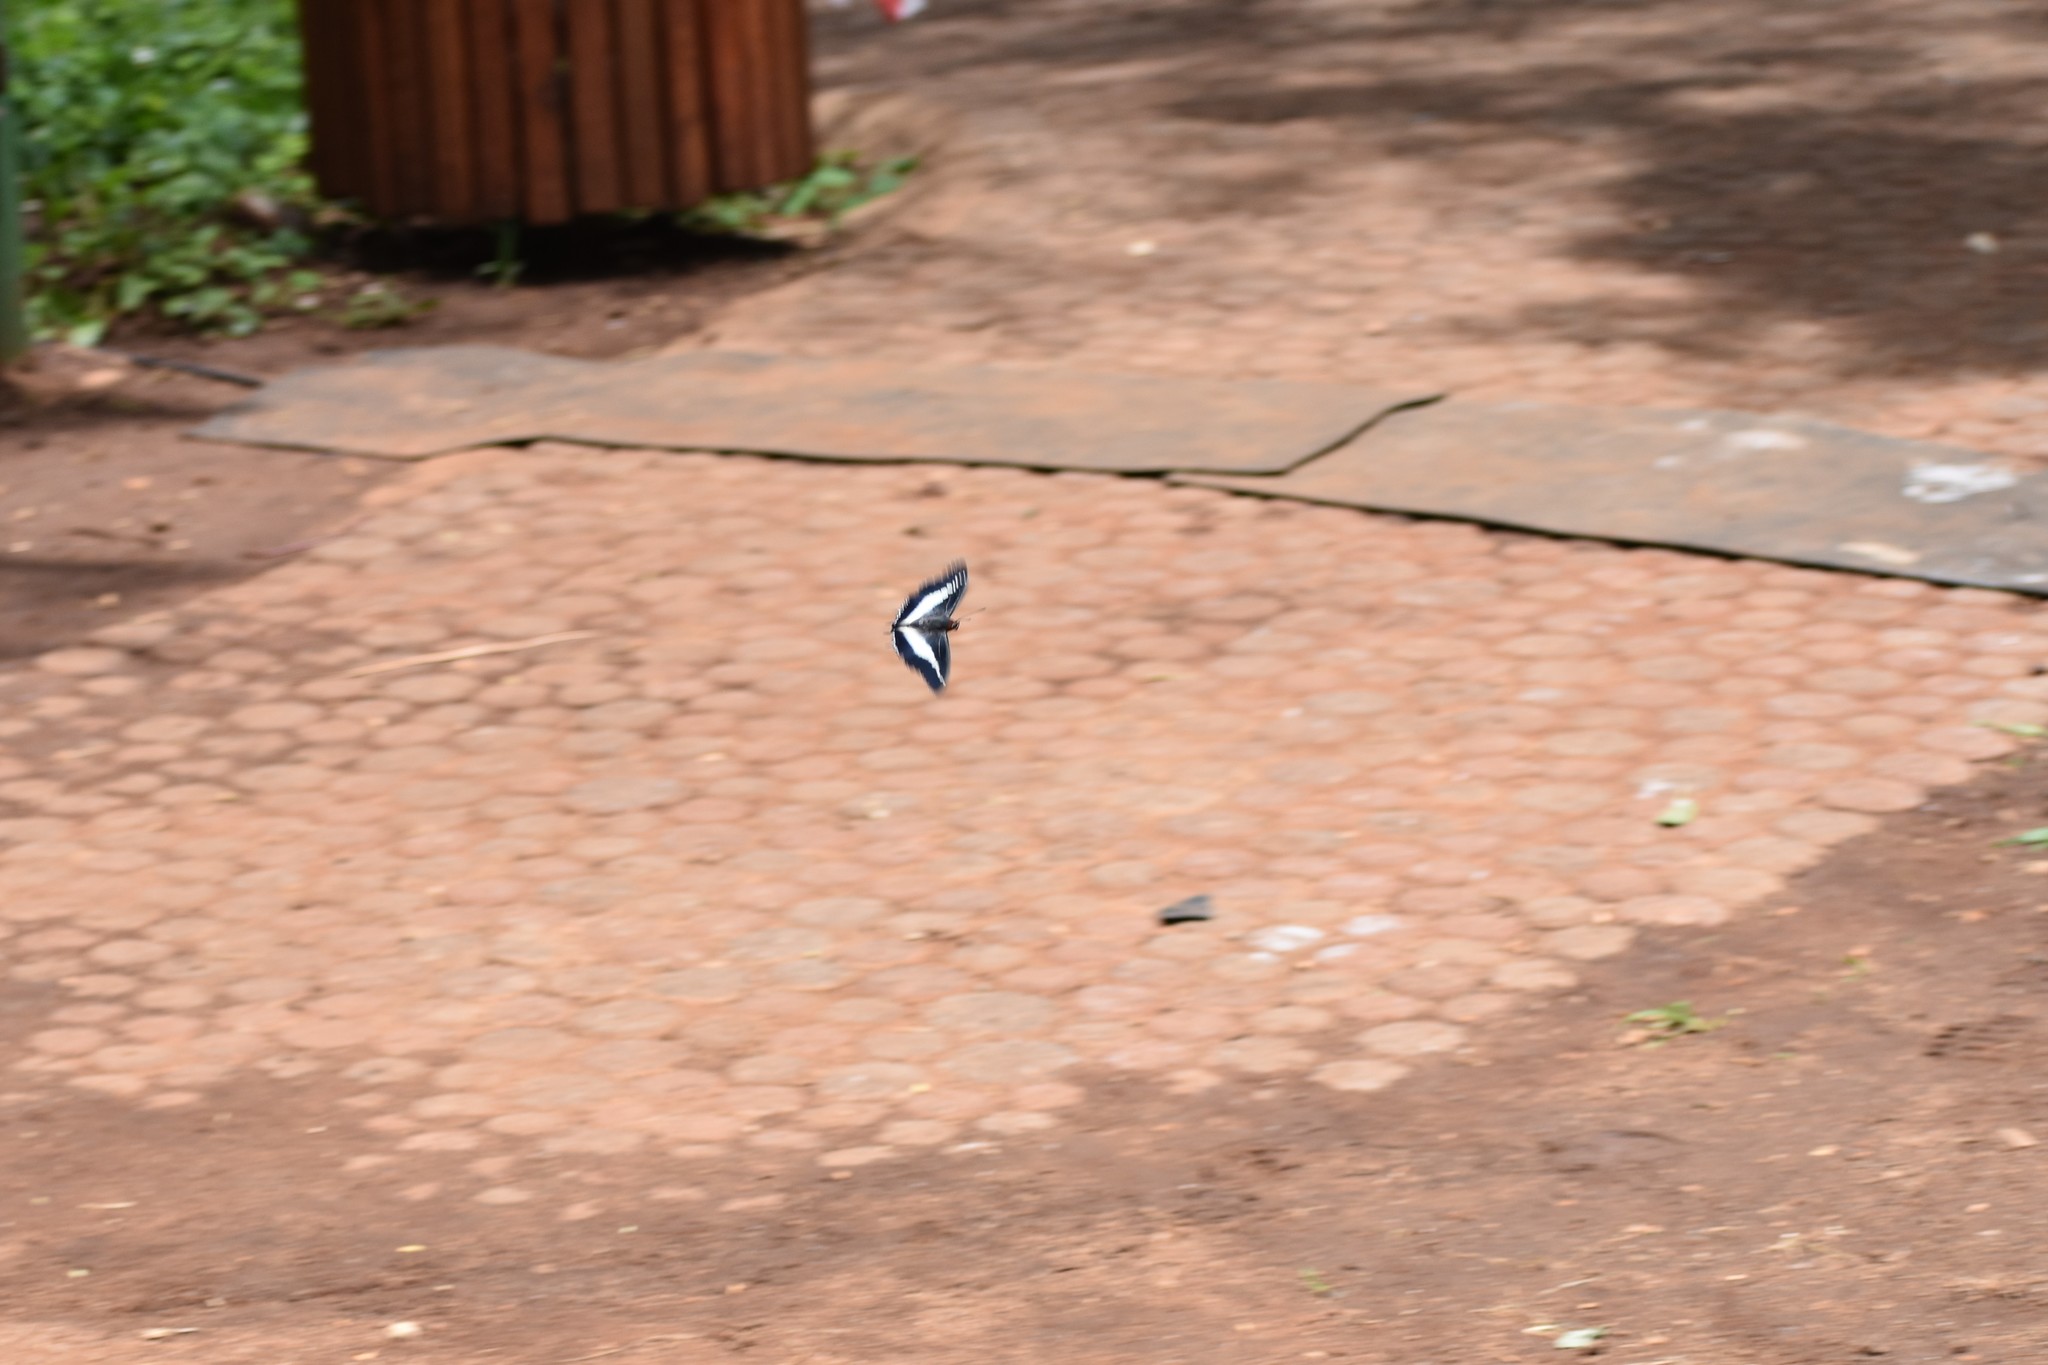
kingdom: Animalia
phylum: Arthropoda
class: Insecta
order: Lepidoptera
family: Nymphalidae
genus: Charaxes
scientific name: Charaxes brutus
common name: White-barred charaxes
